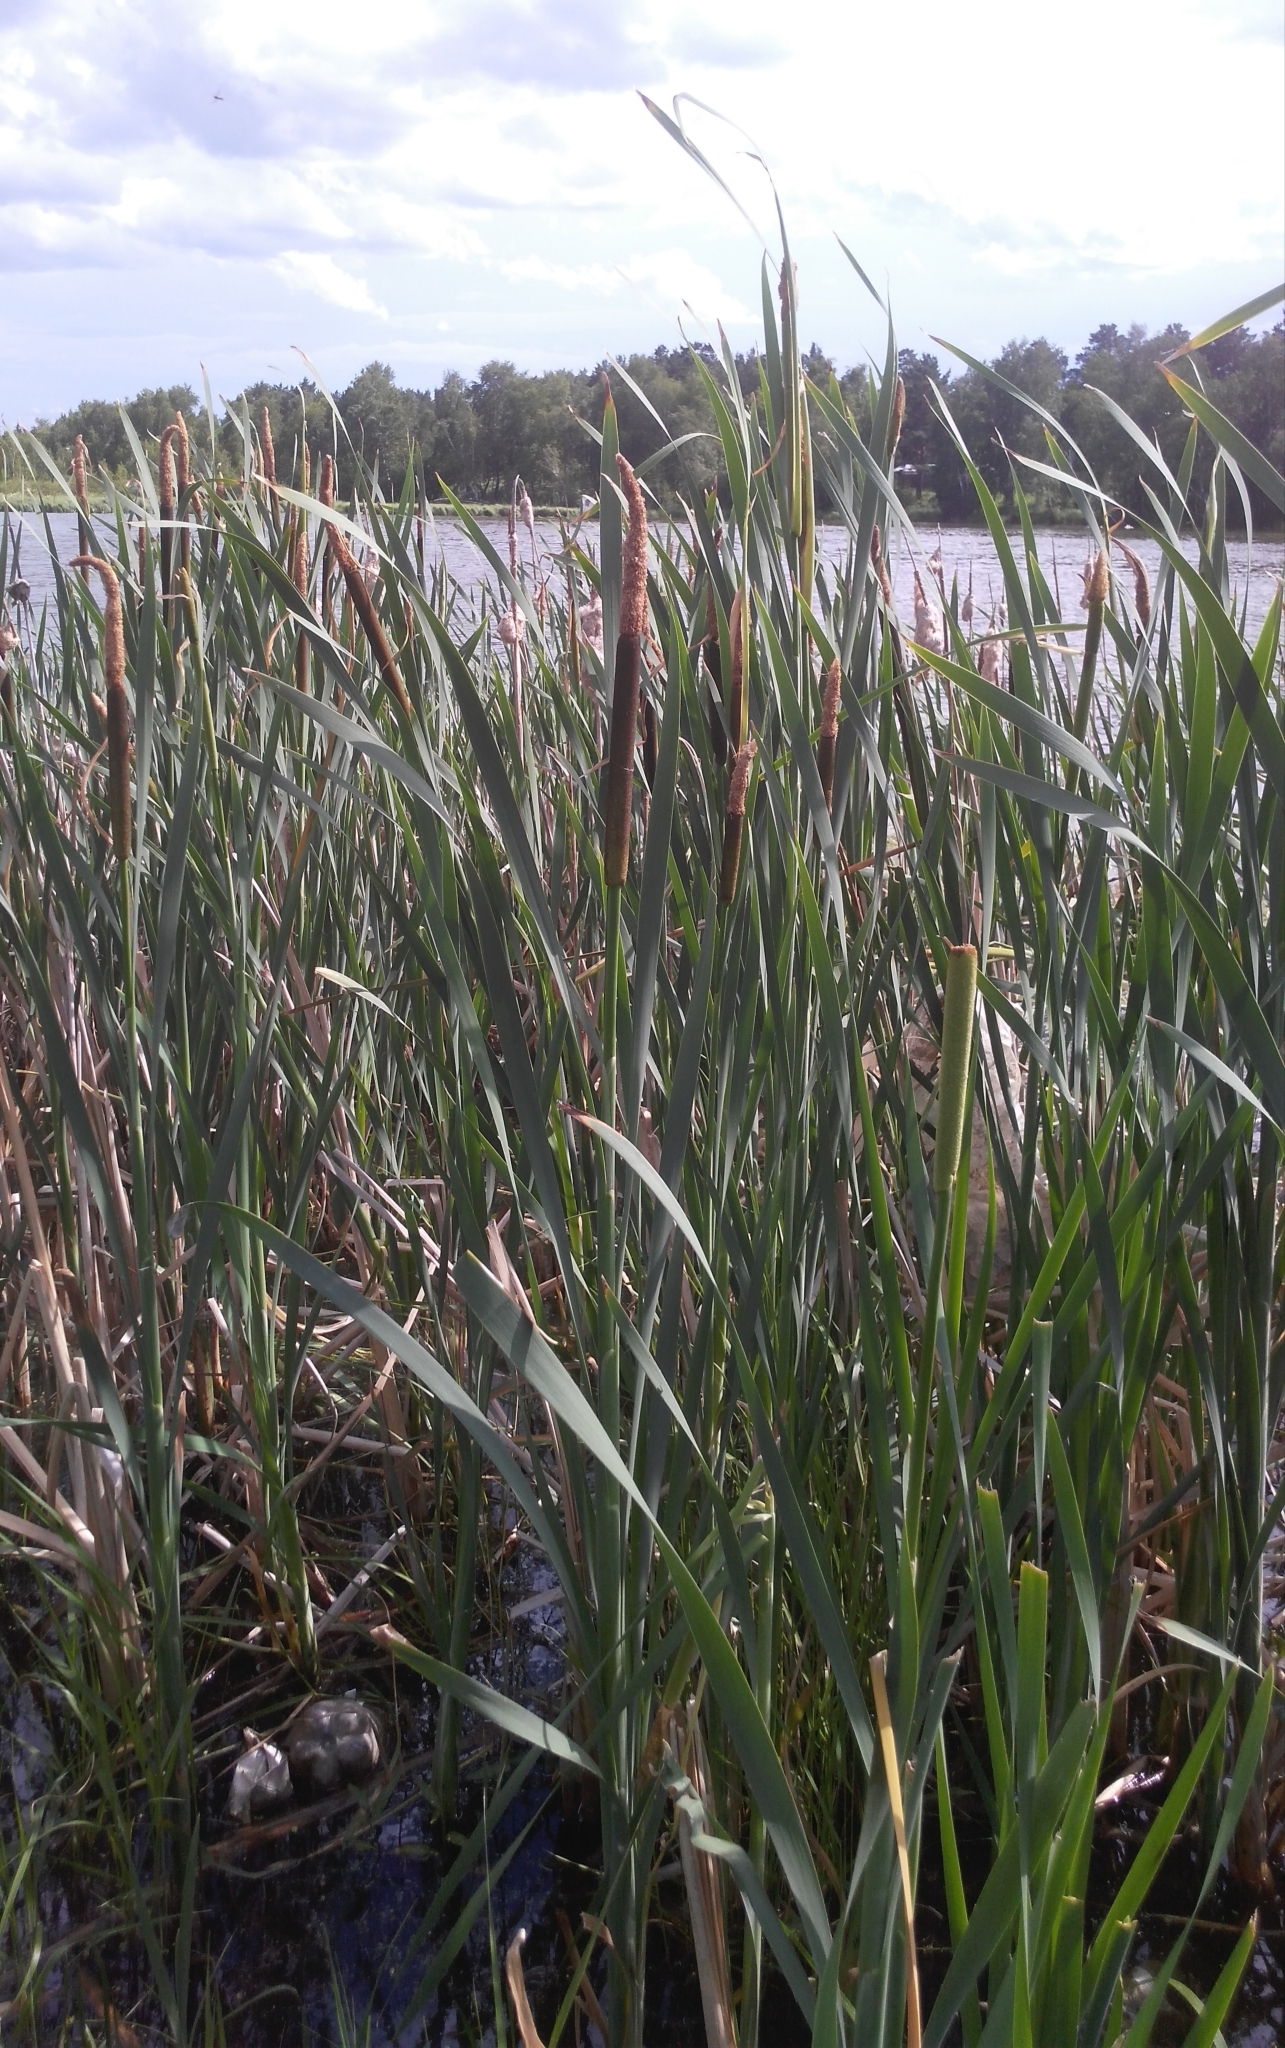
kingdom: Plantae
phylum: Tracheophyta
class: Liliopsida
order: Poales
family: Typhaceae
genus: Typha
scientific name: Typha latifolia
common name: Broadleaf cattail
